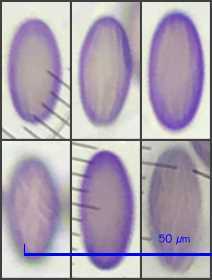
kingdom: Fungi
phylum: Ascomycota
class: Pezizomycetes
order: Pezizales
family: Ascobolaceae
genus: Ascobolus
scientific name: Ascobolus michaudii
